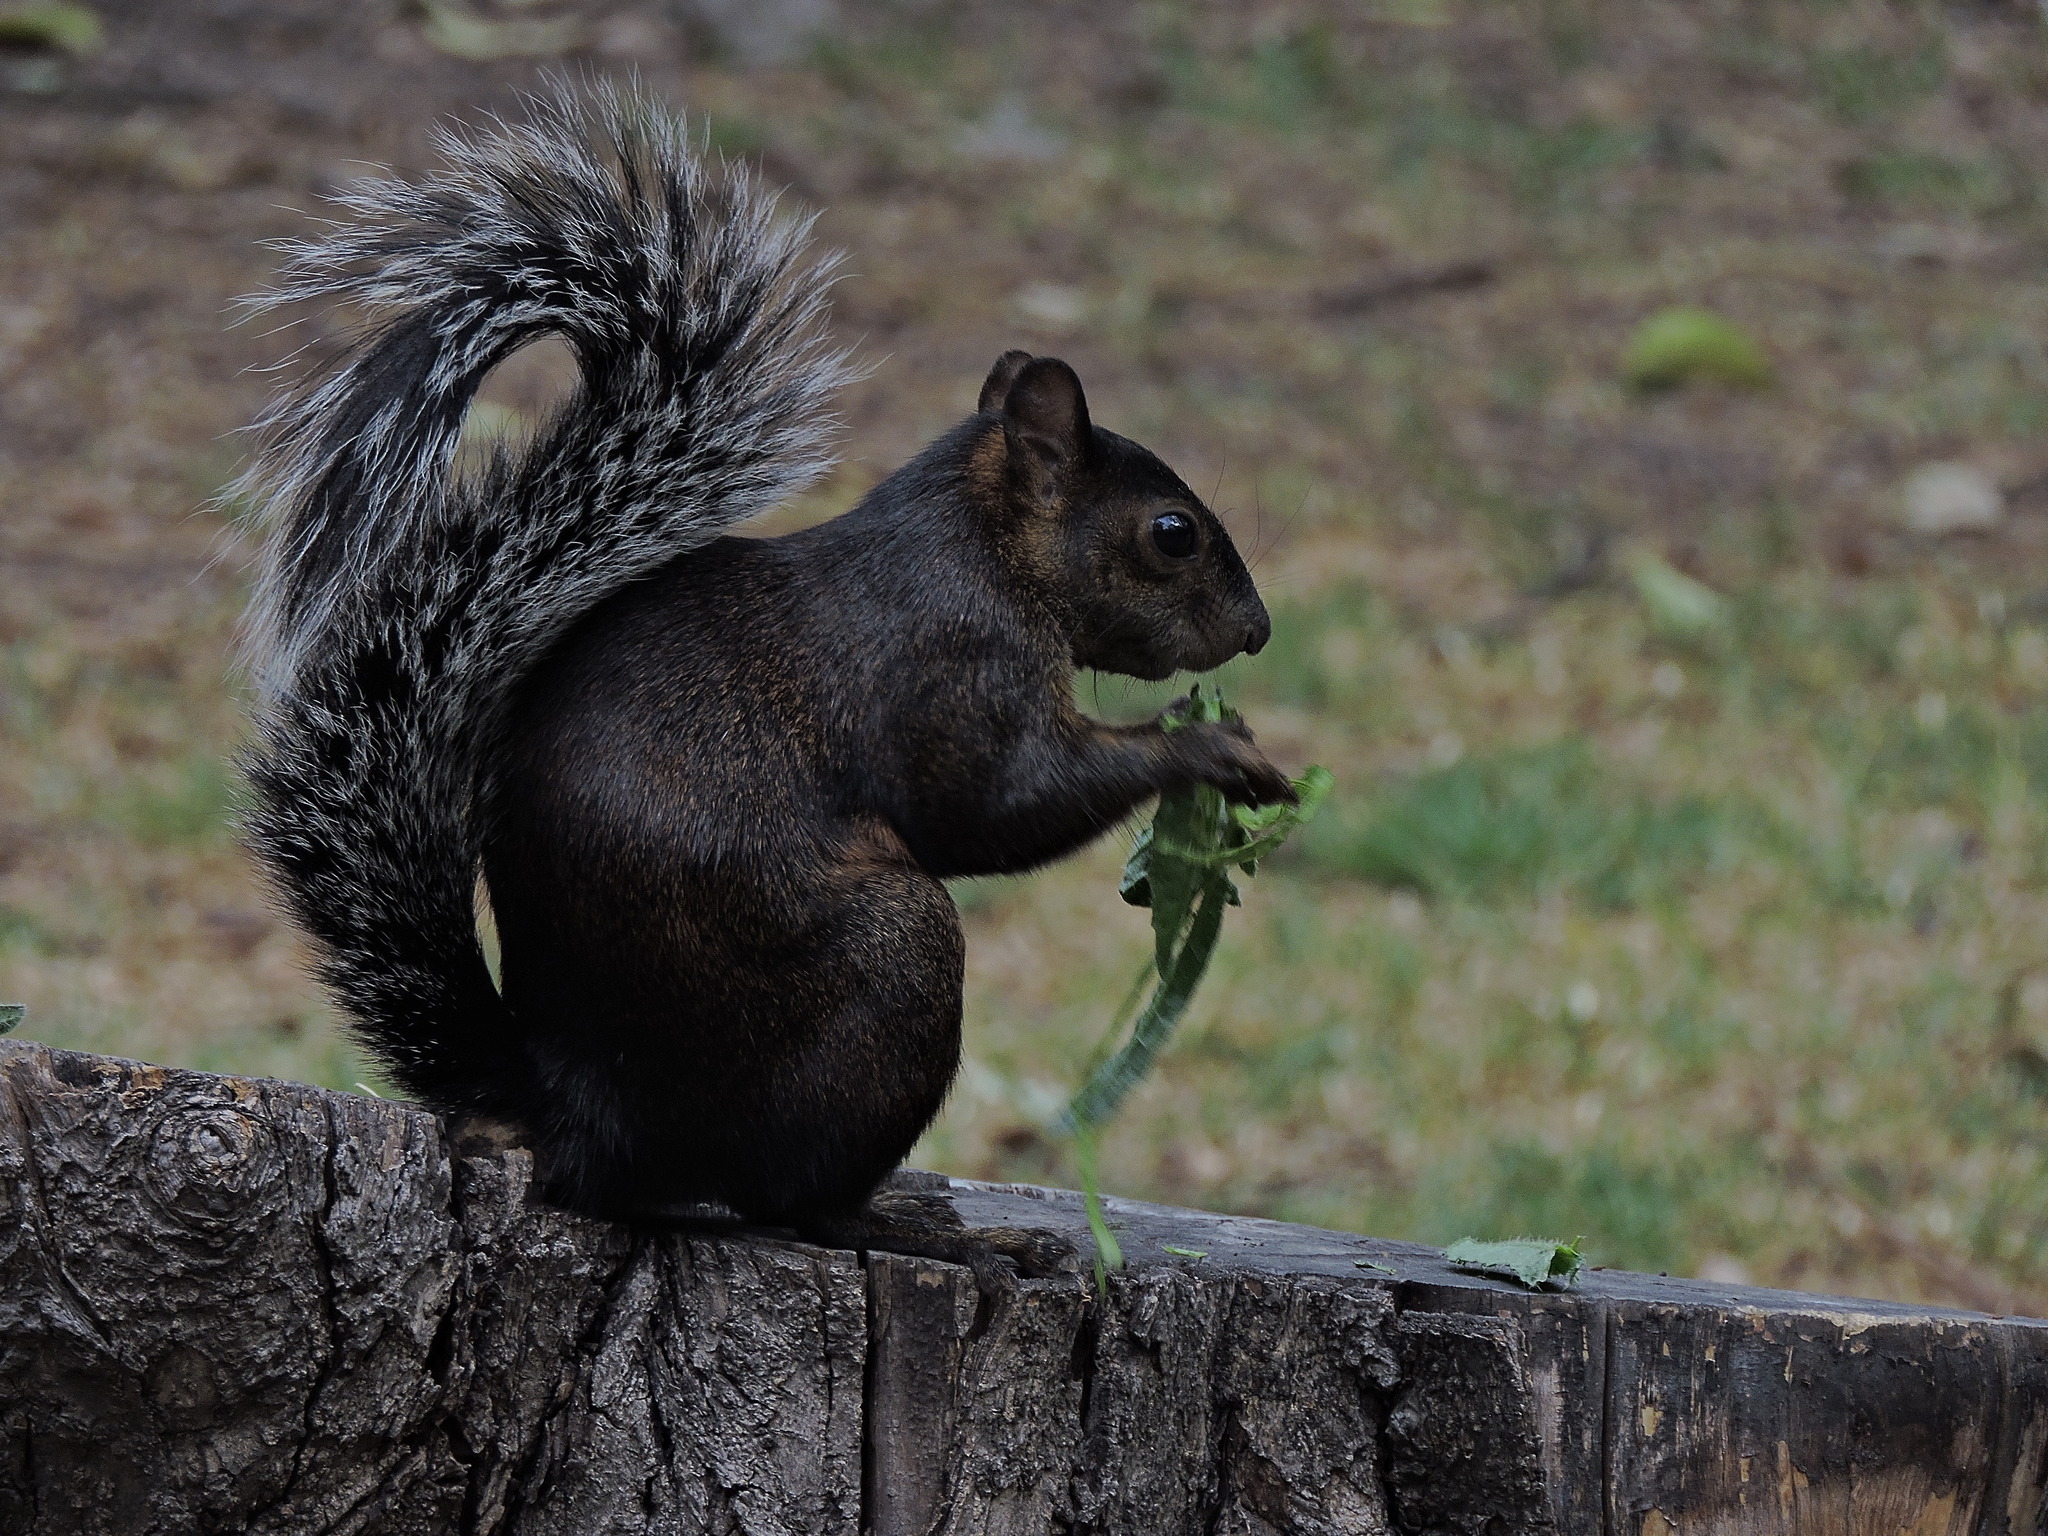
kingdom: Animalia
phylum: Chordata
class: Mammalia
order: Rodentia
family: Sciuridae
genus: Sciurus
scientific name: Sciurus aureogaster
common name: Red-bellied squirrel
